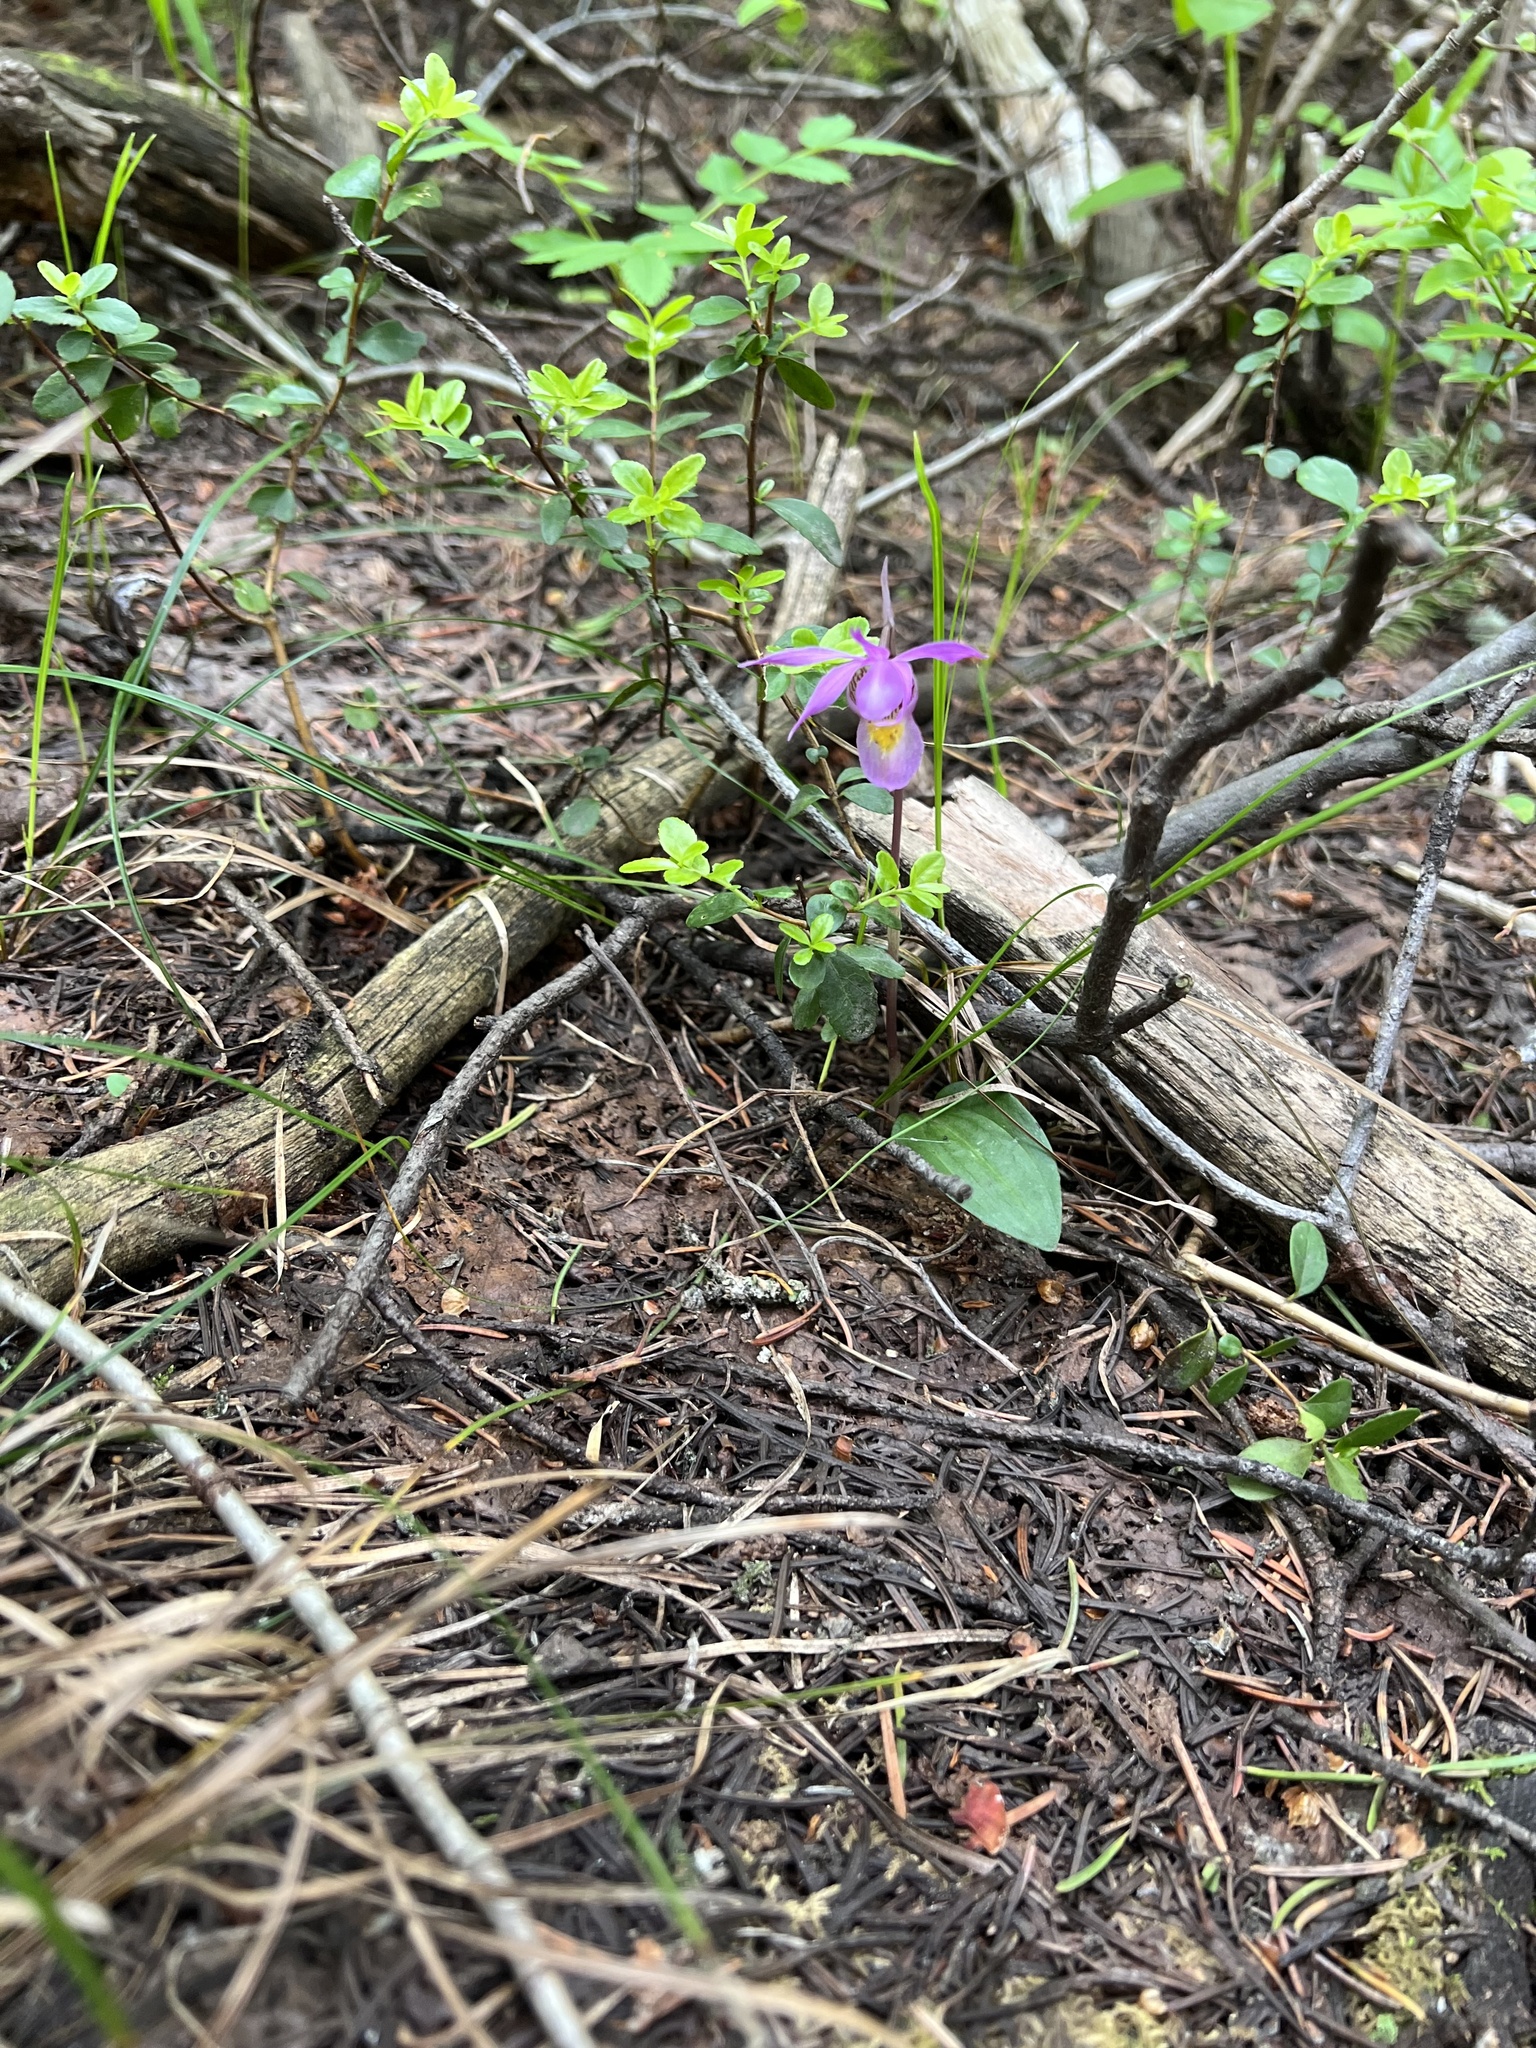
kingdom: Plantae
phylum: Tracheophyta
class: Liliopsida
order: Asparagales
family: Orchidaceae
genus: Calypso
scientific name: Calypso bulbosa
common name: Calypso
